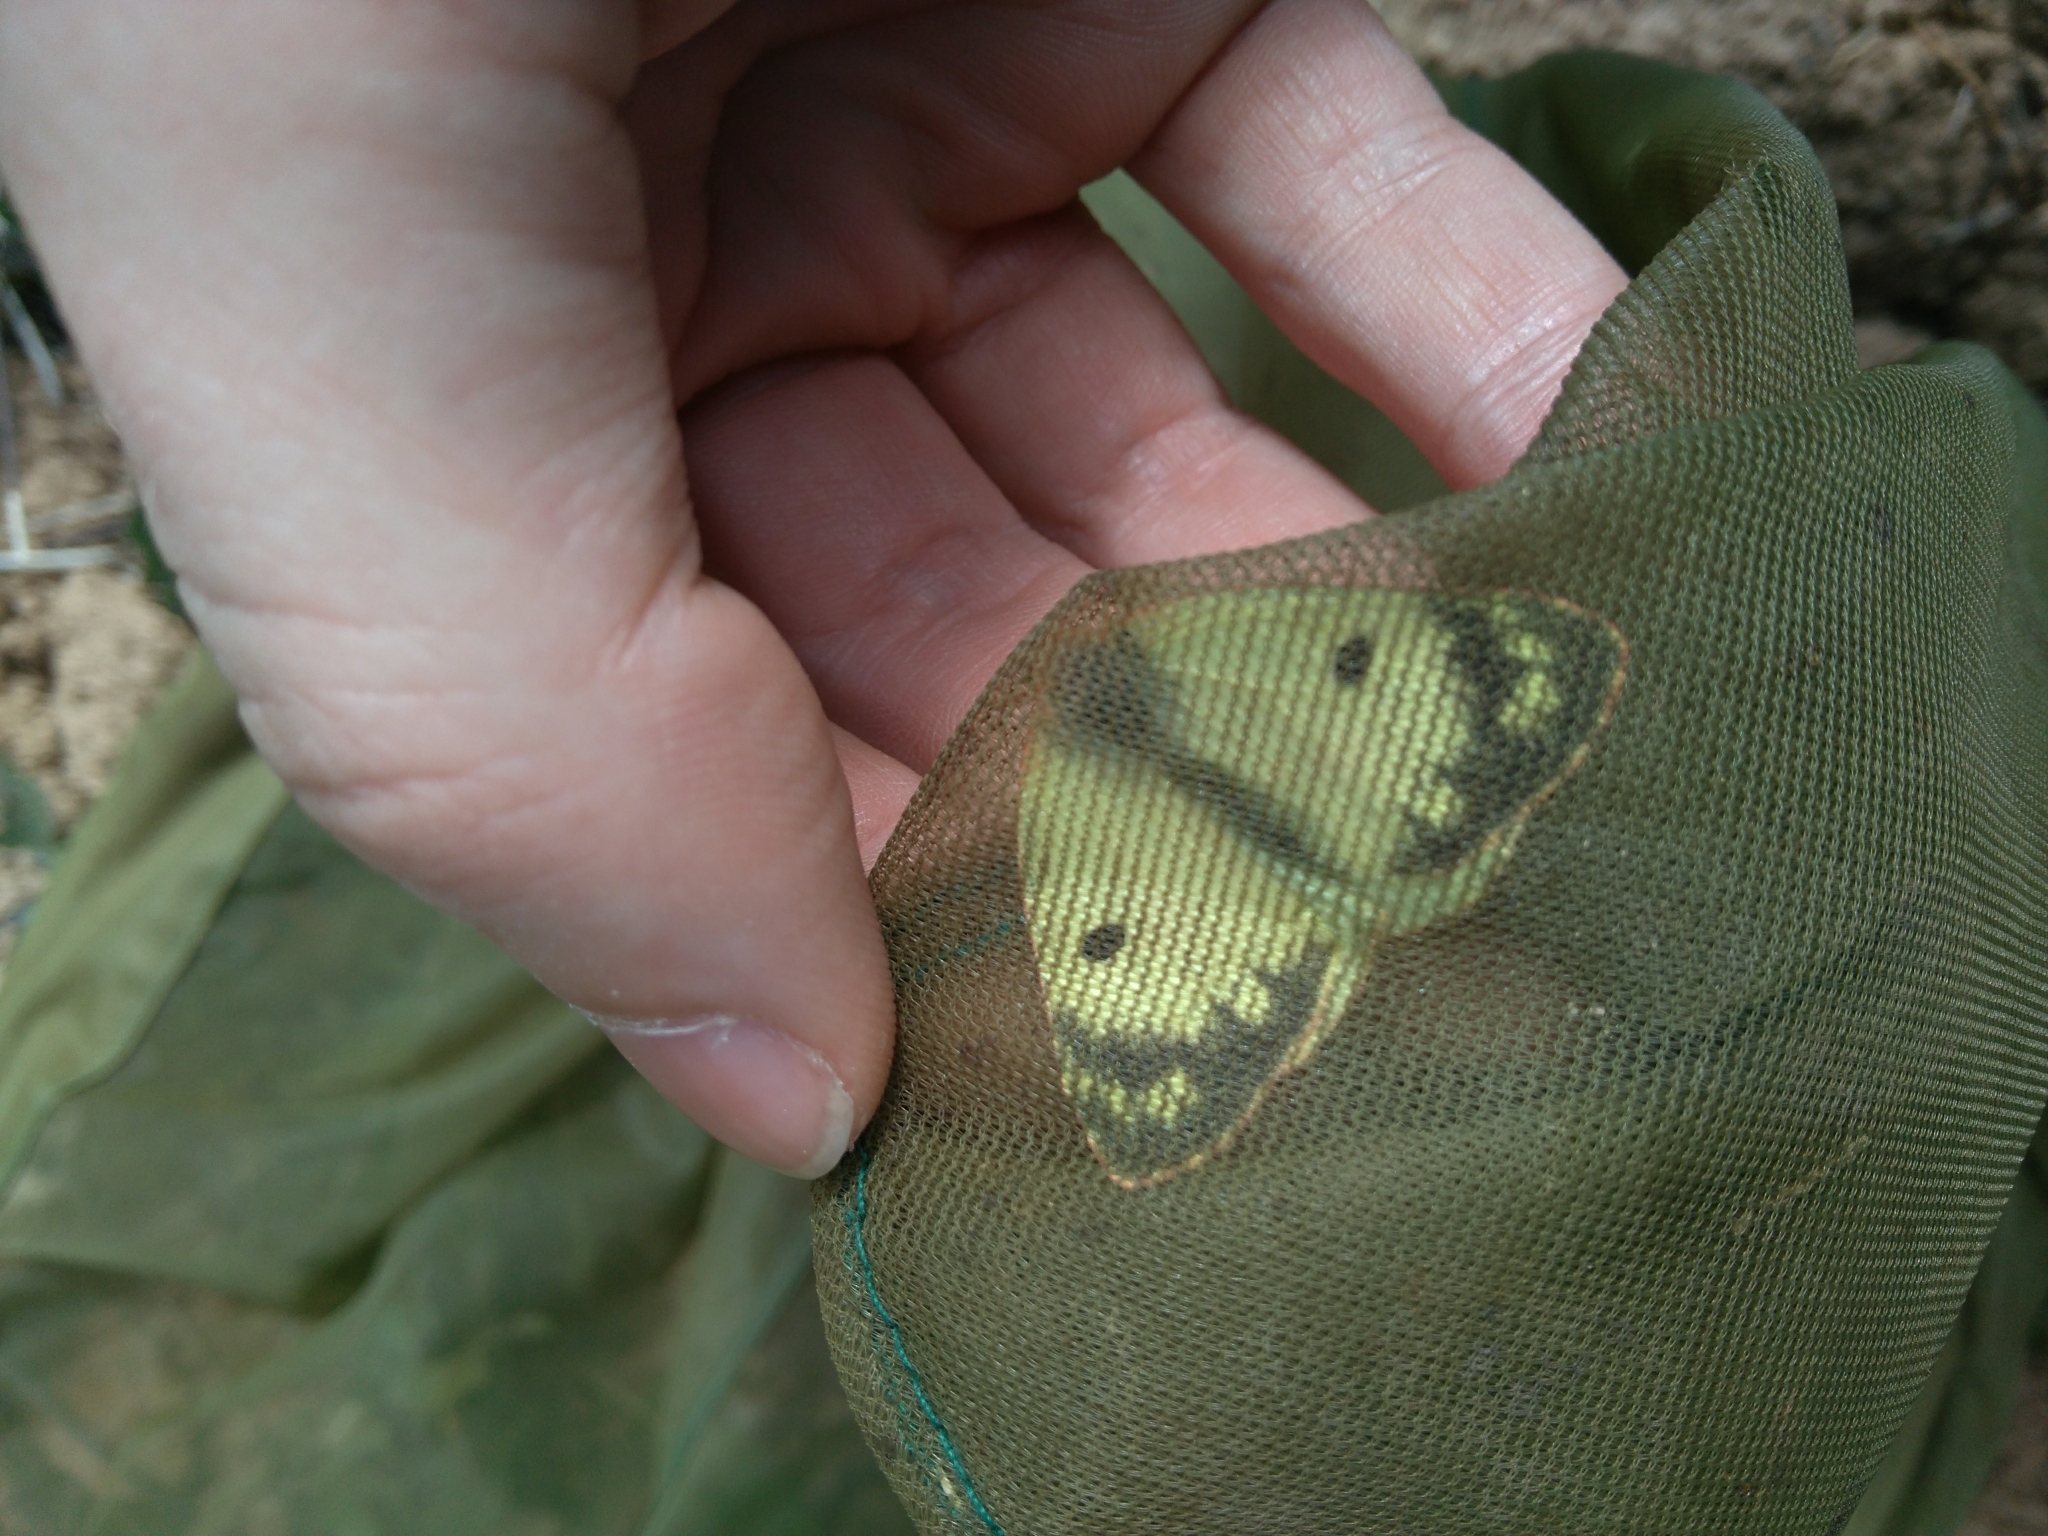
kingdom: Animalia
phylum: Arthropoda
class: Insecta
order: Lepidoptera
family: Pieridae
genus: Colias
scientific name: Colias alfacariensis
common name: Berger's clouded yellow
